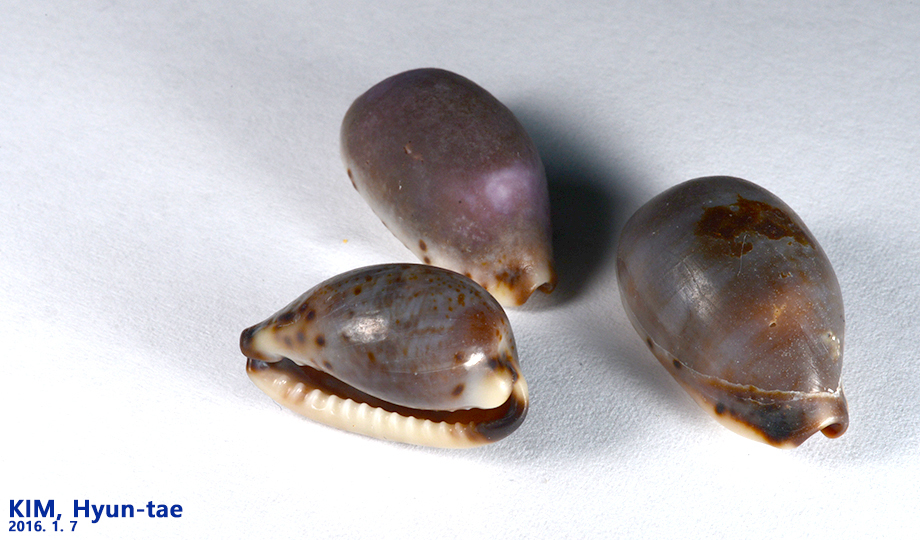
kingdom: Animalia
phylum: Mollusca
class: Gastropoda
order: Littorinimorpha
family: Cypraeidae
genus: Purpuradusta
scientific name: Purpuradusta gracilis
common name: Graceful cowrie
